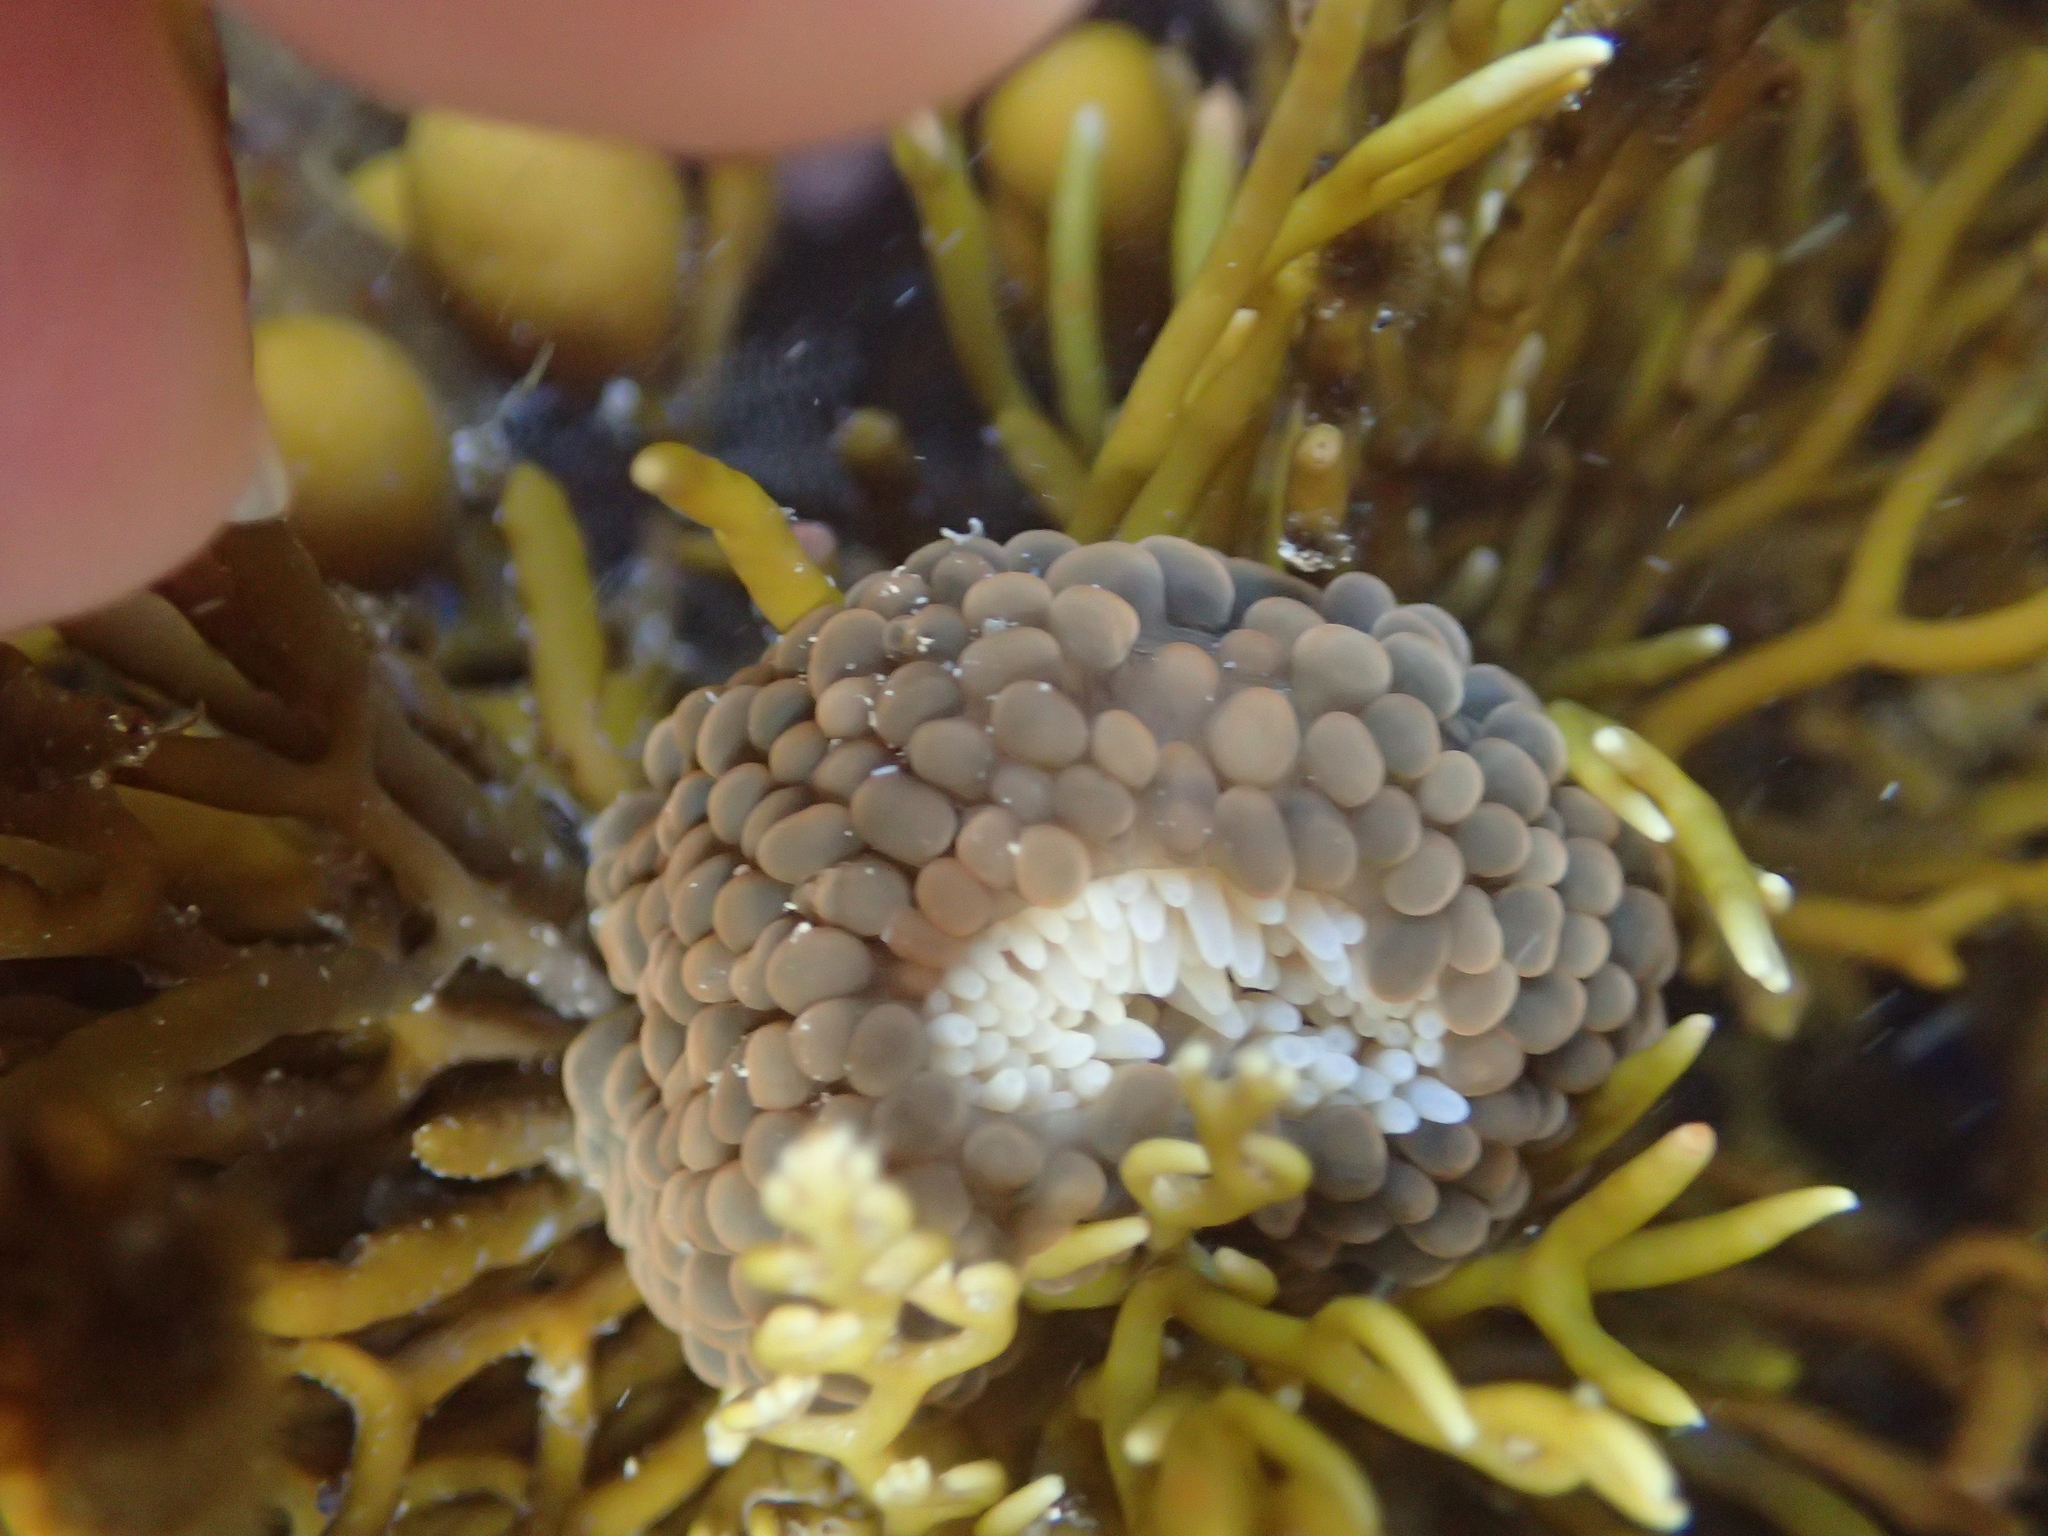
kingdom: Animalia
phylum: Cnidaria
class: Anthozoa
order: Actiniaria
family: Actiniidae
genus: Phlyctenactis
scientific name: Phlyctenactis tuberculosa
